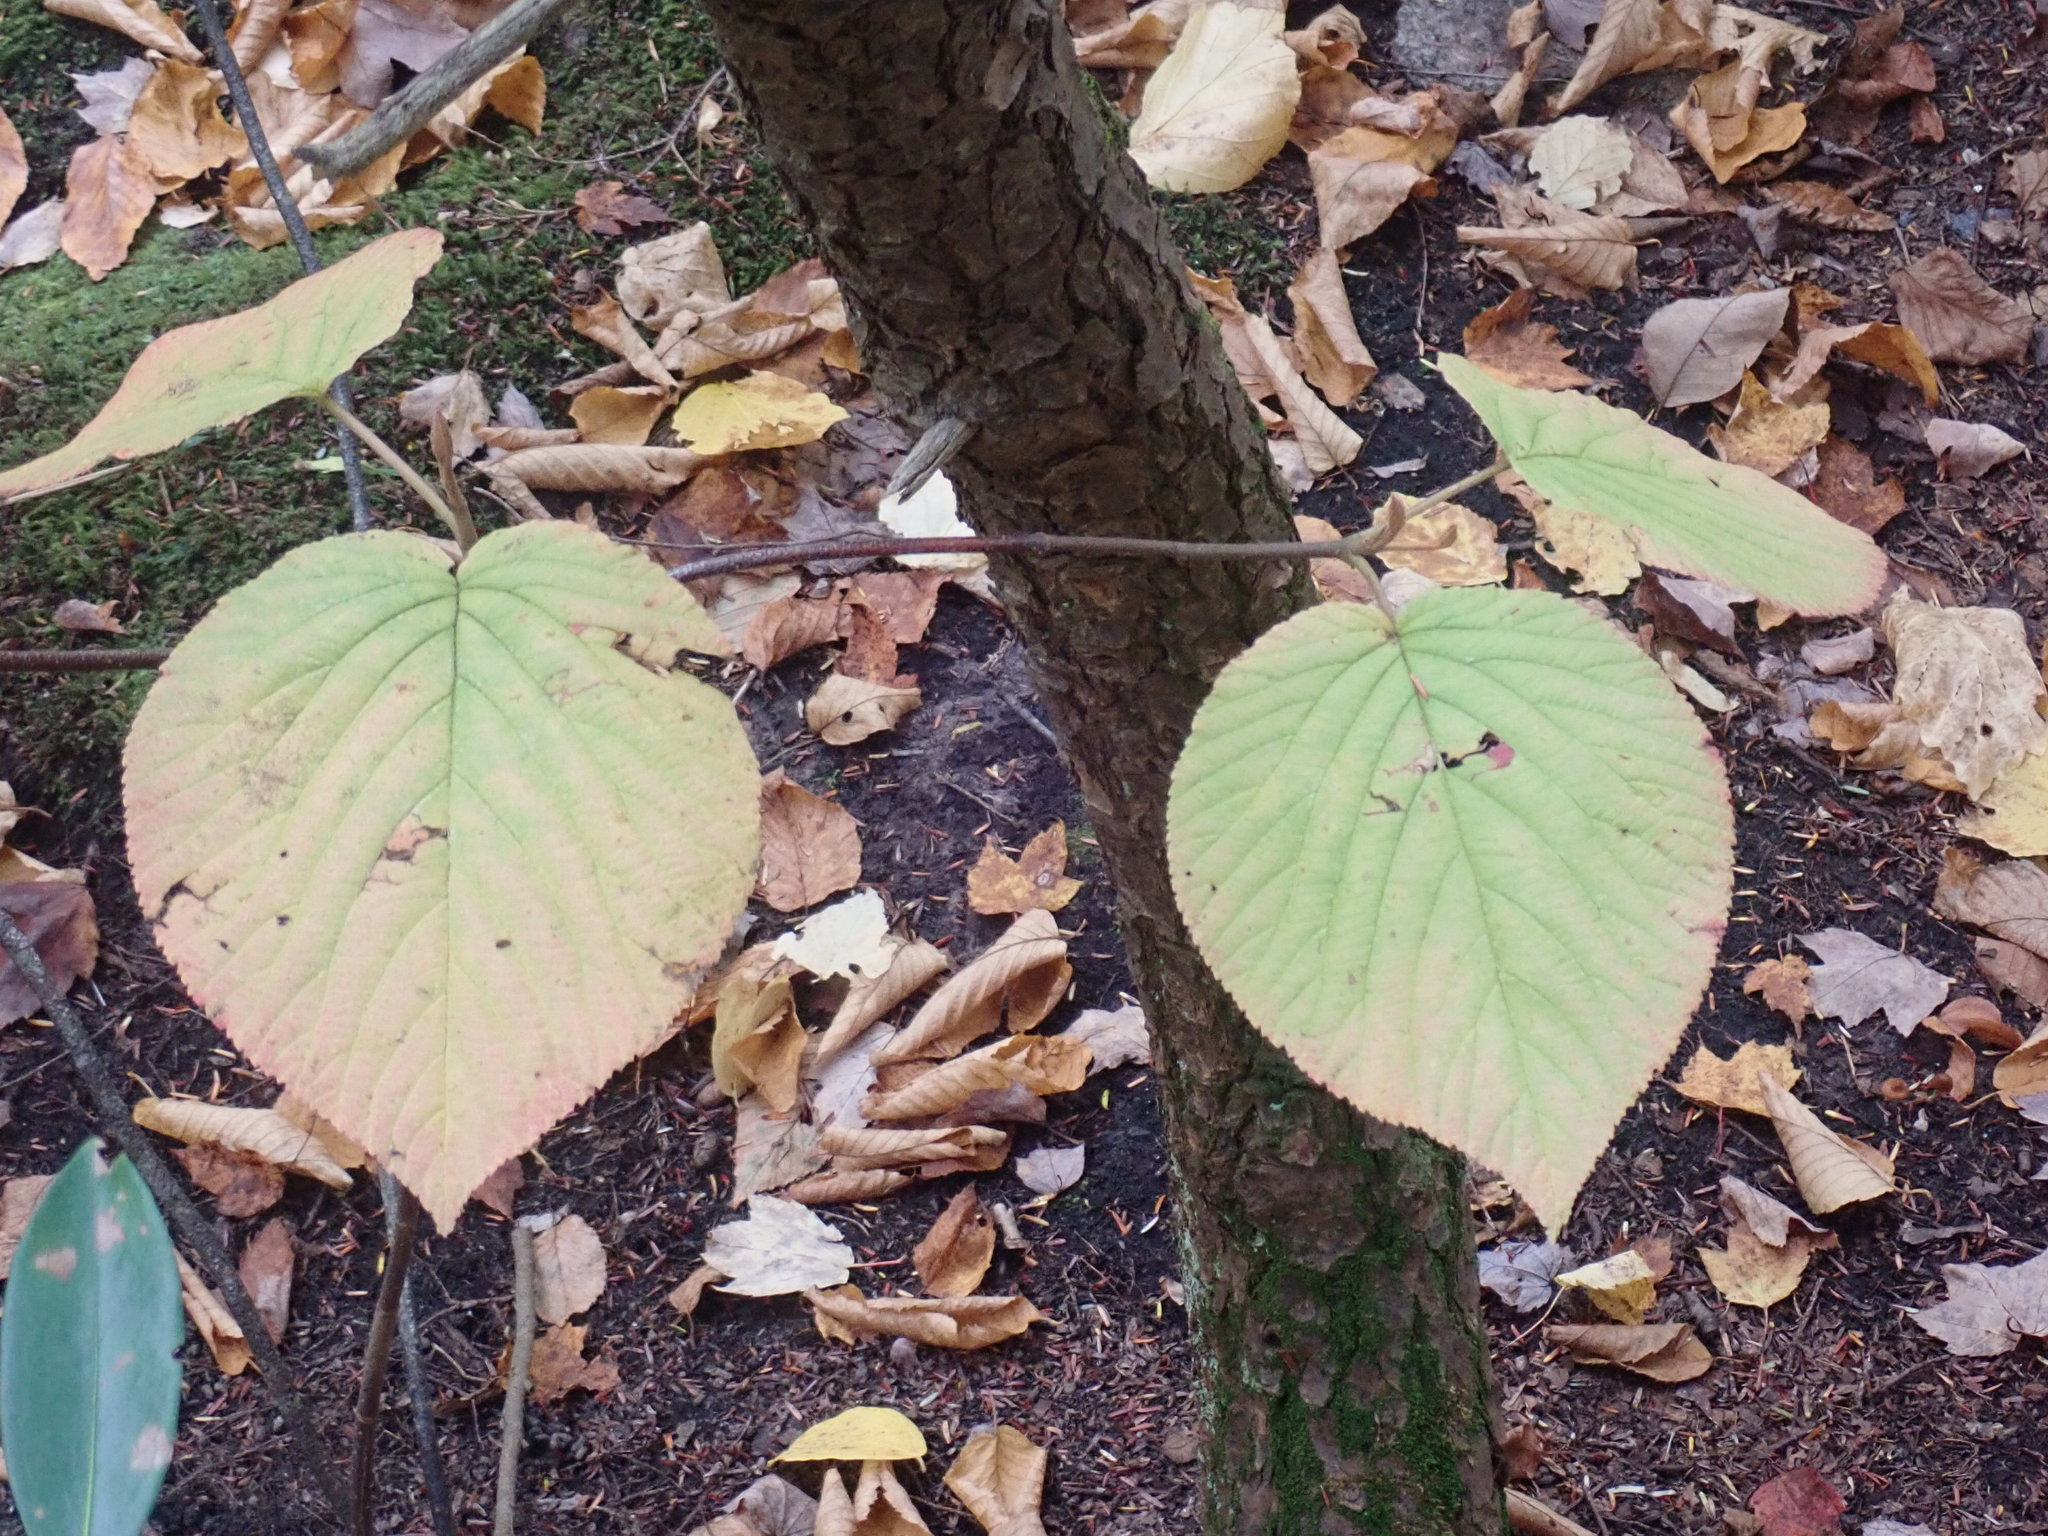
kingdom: Plantae
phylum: Tracheophyta
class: Magnoliopsida
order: Dipsacales
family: Viburnaceae
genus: Viburnum
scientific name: Viburnum lantanoides
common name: Hobblebush
